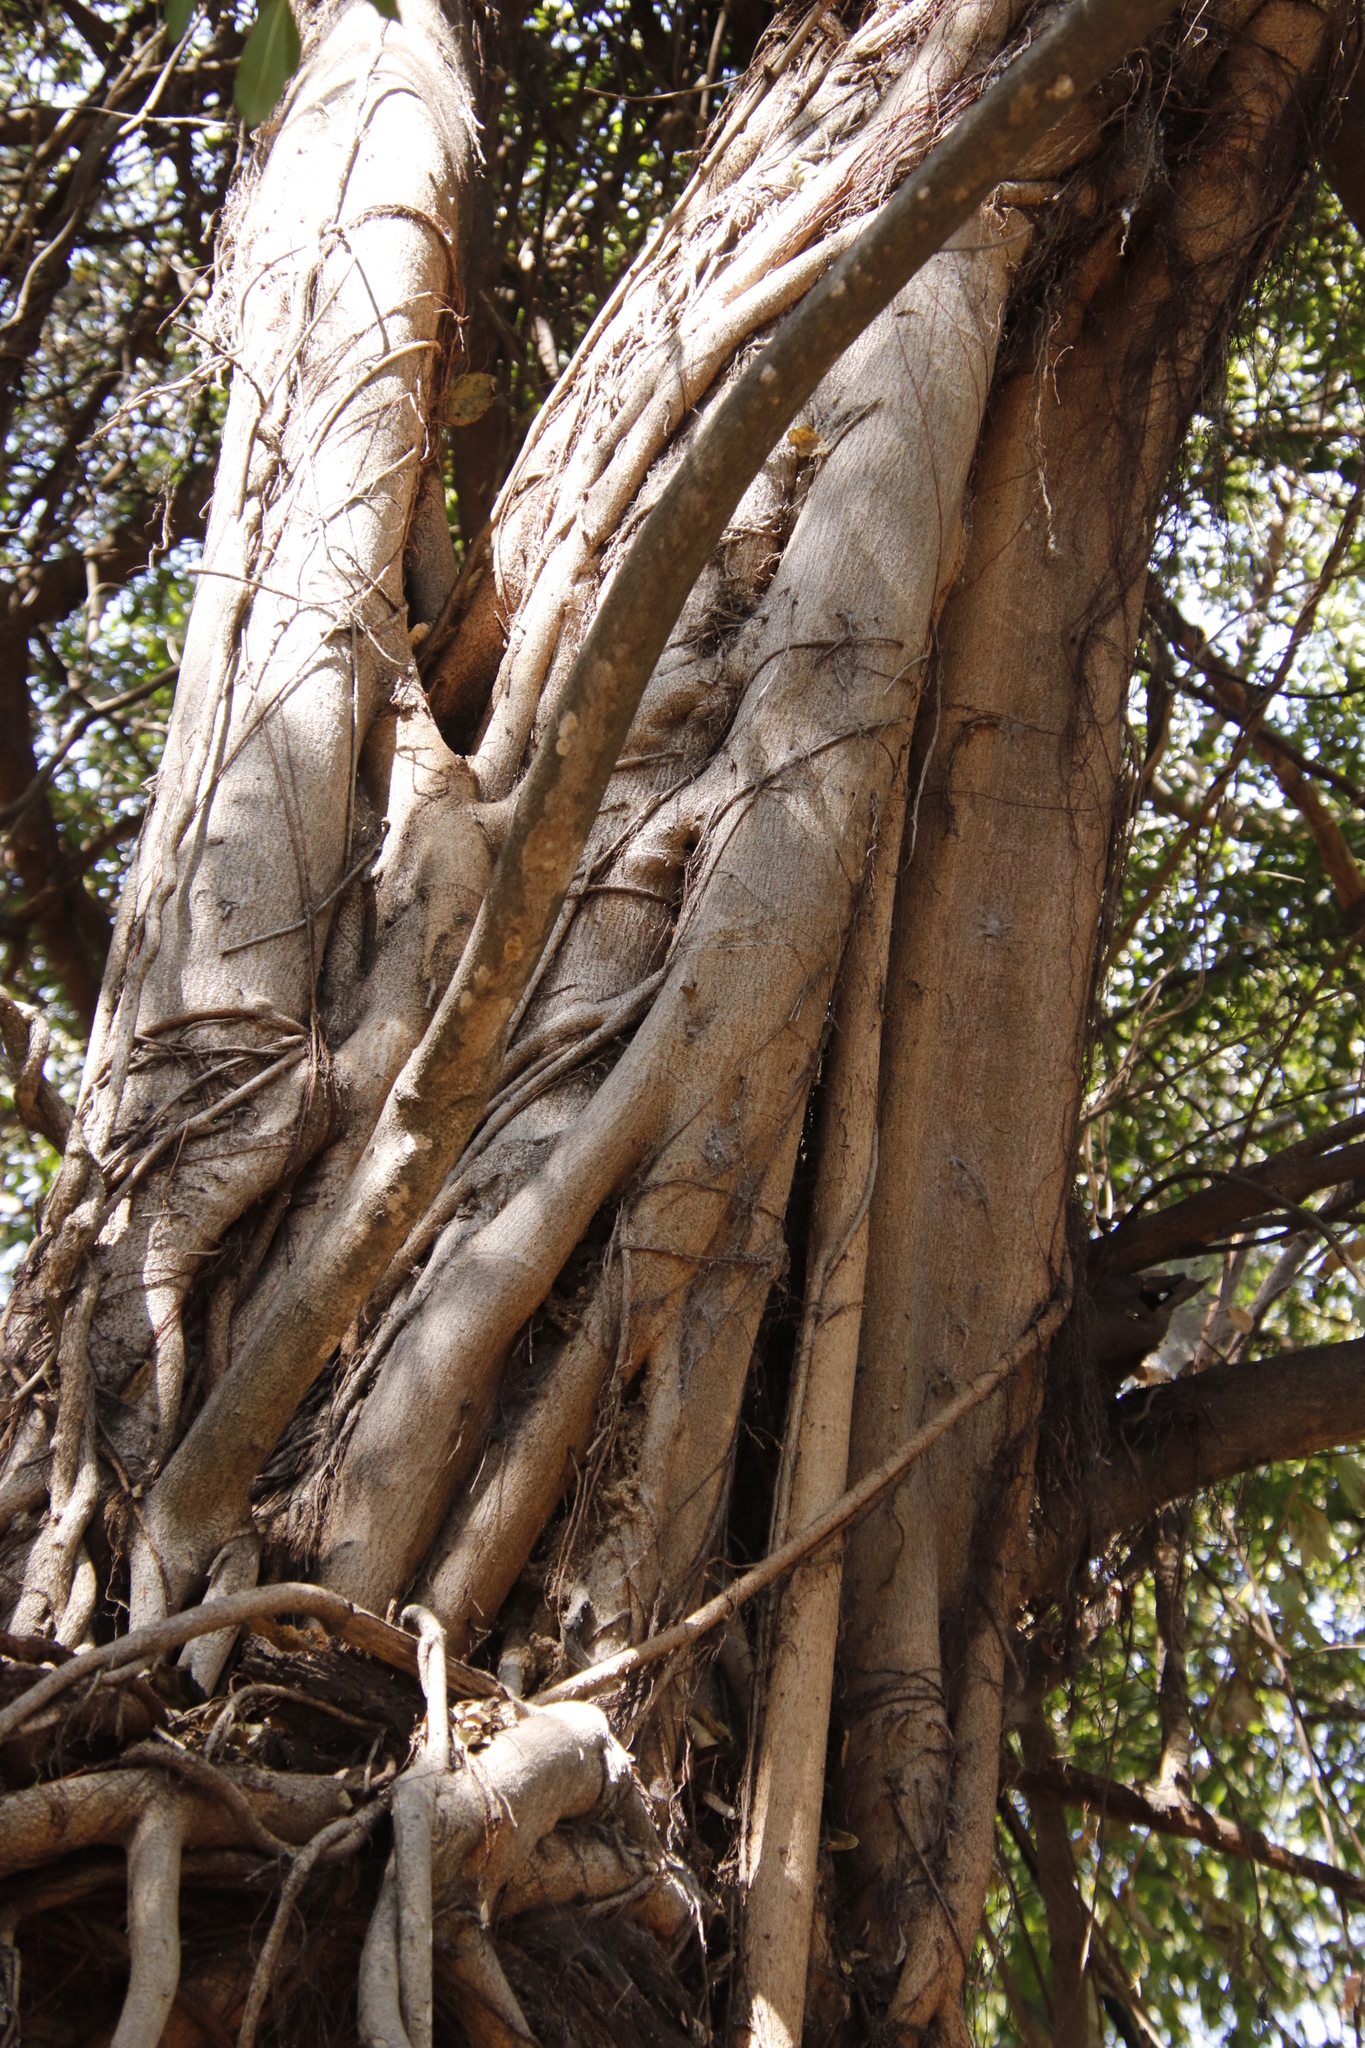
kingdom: Plantae
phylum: Tracheophyta
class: Magnoliopsida
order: Rosales
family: Moraceae
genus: Ficus
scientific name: Ficus thonningii
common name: Fig
